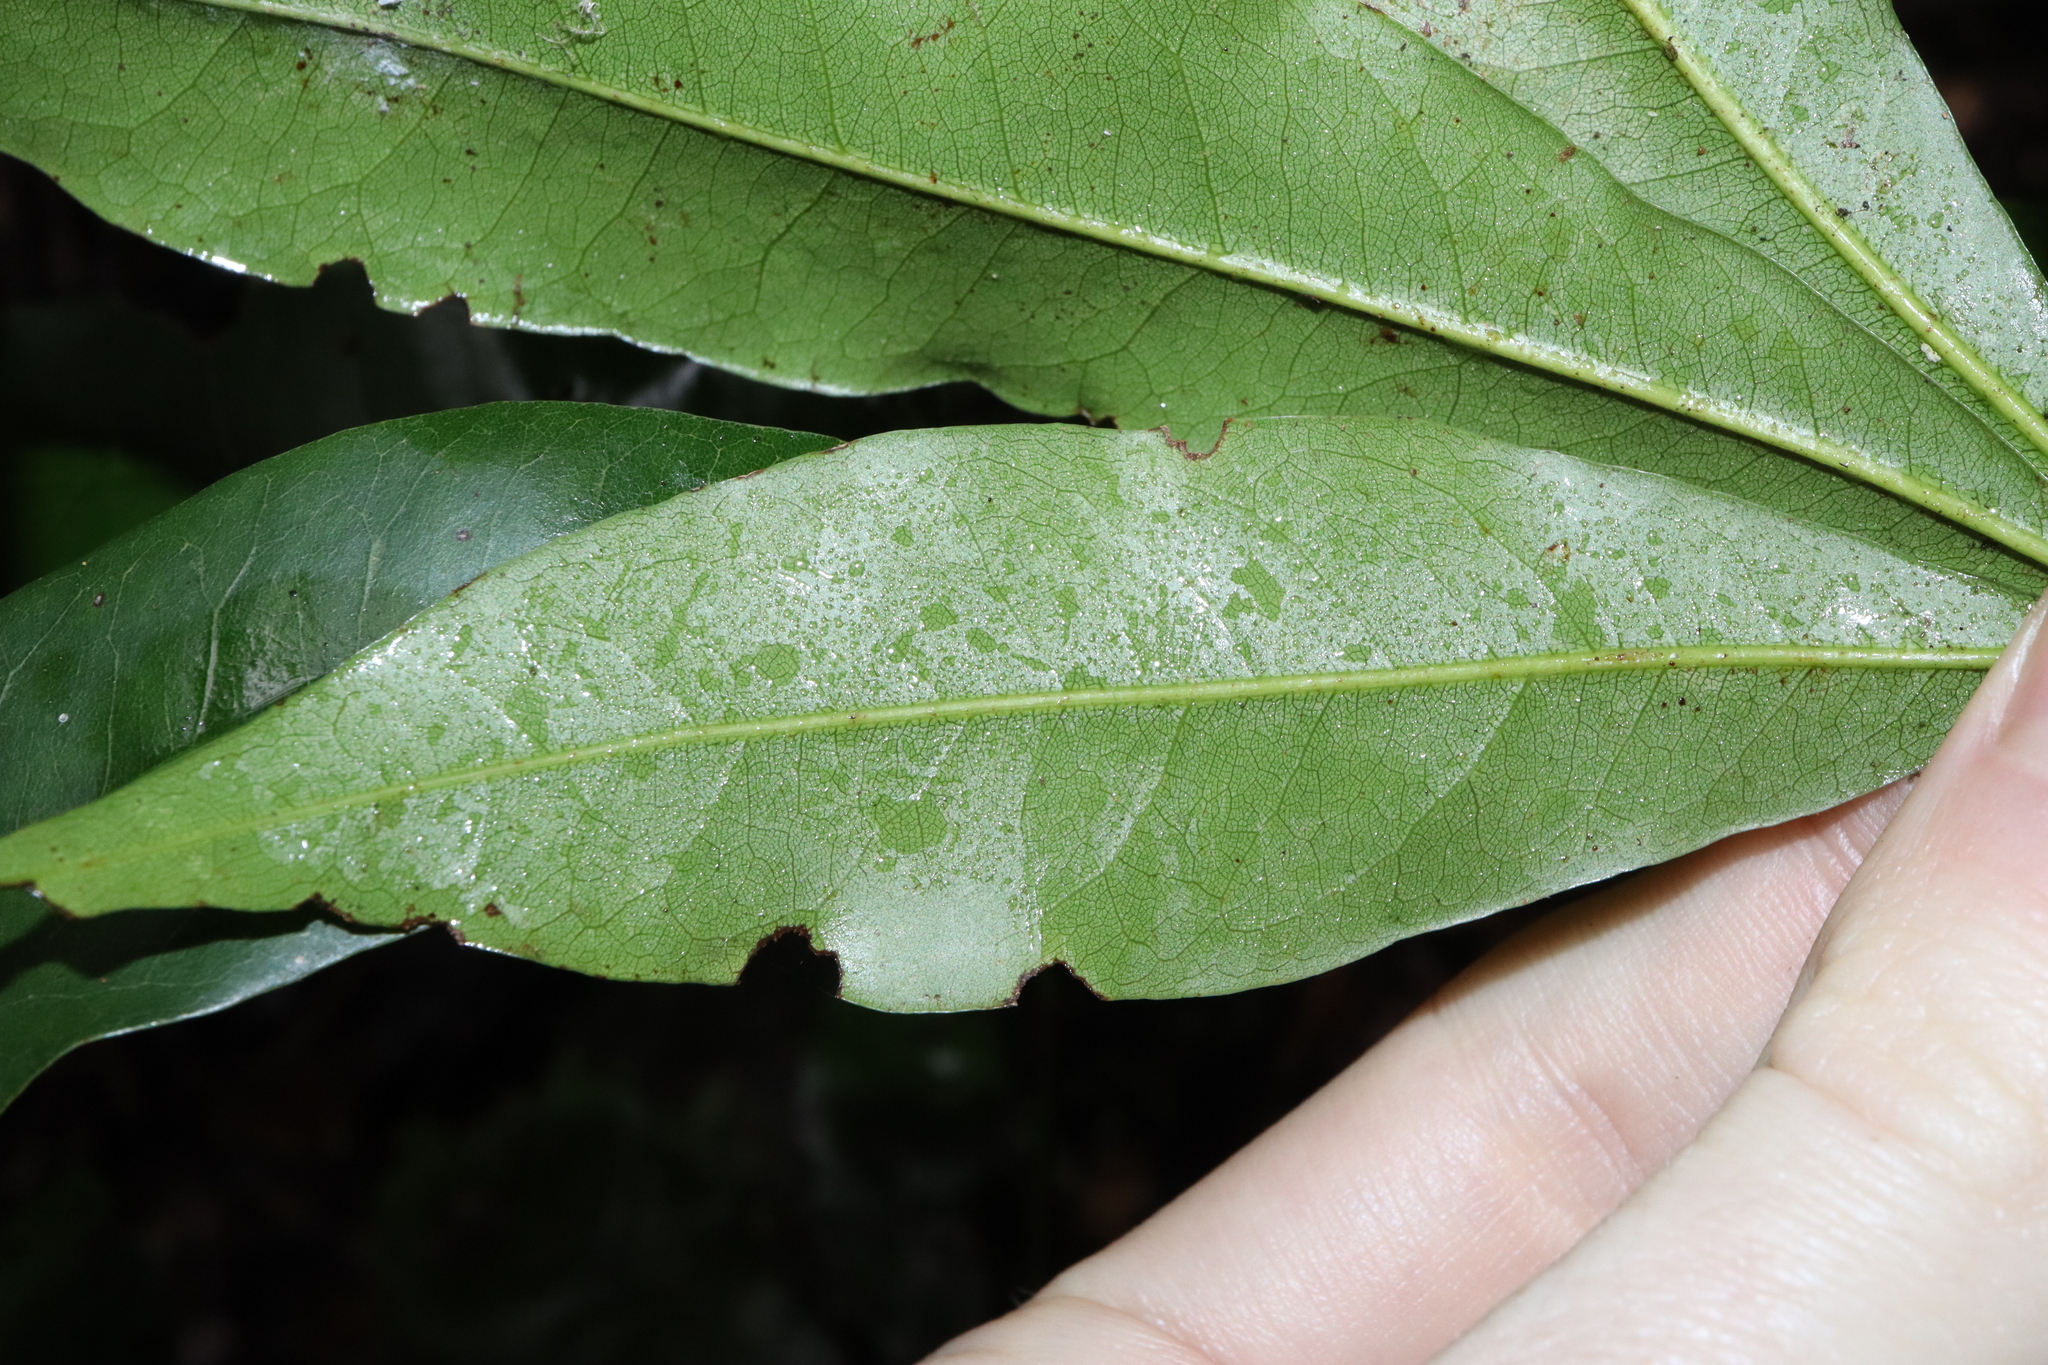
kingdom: Plantae
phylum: Tracheophyta
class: Magnoliopsida
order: Malvales
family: Malvaceae
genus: Argyrodendron
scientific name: Argyrodendron actinophyllum
